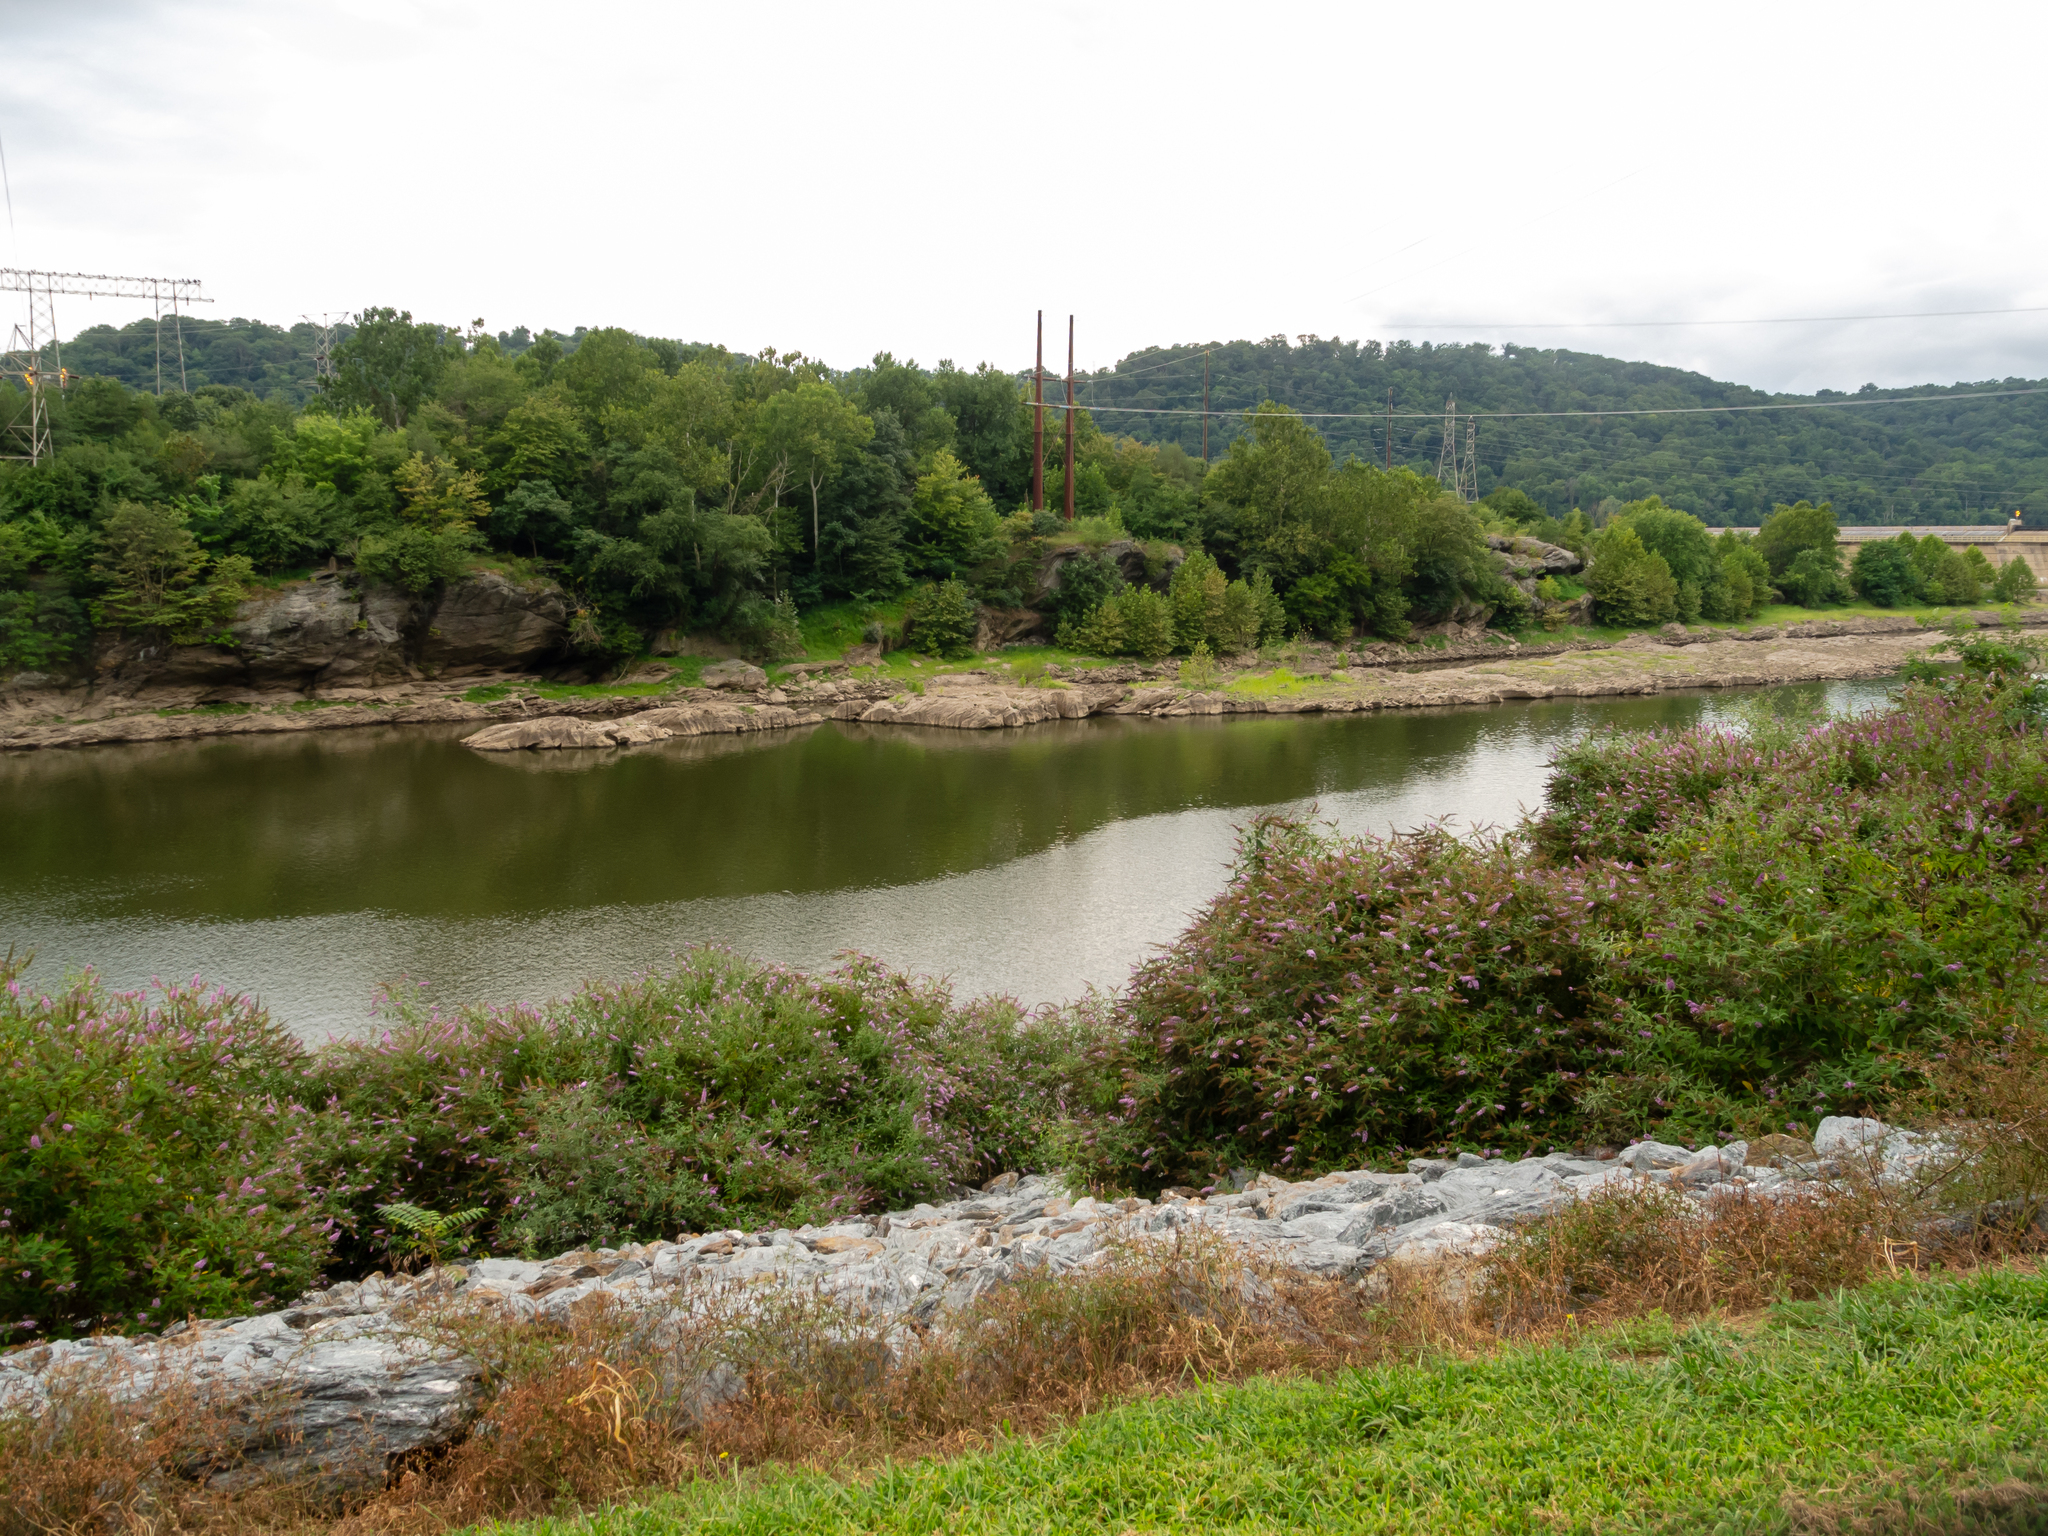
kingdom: Plantae
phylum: Tracheophyta
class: Magnoliopsida
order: Lamiales
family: Scrophulariaceae
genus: Buddleja
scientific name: Buddleja davidii
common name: Butterfly-bush
